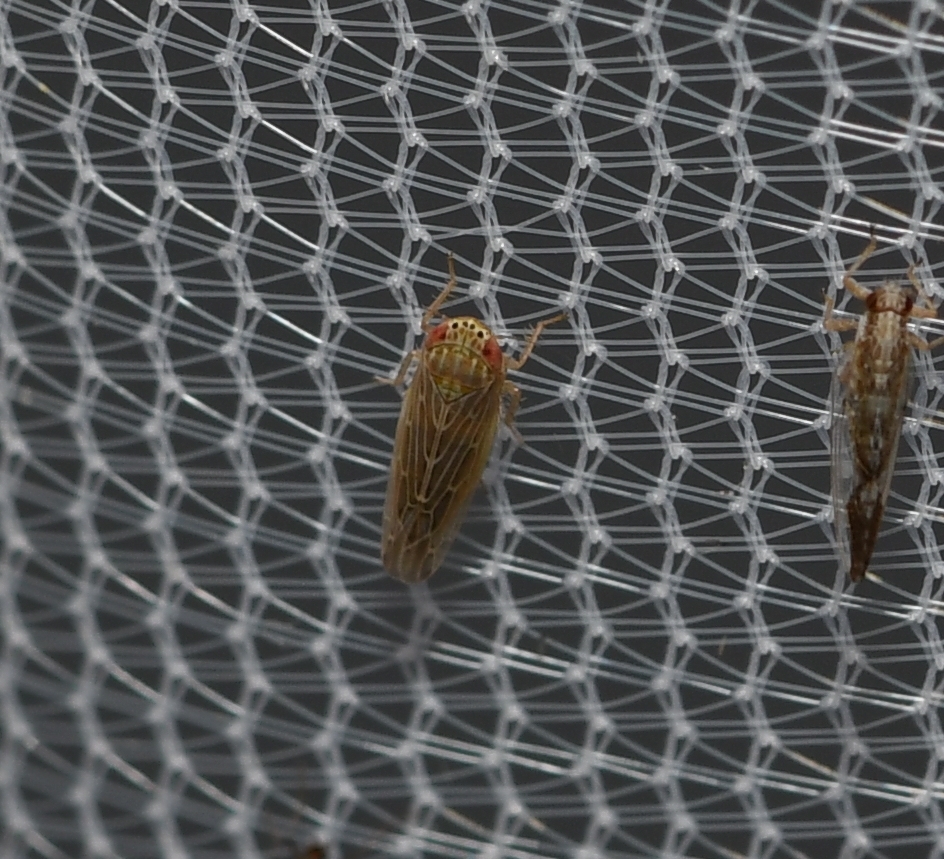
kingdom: Animalia
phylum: Arthropoda
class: Insecta
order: Hemiptera
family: Cicadellidae
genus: Graminella
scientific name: Graminella sonora
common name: Lesser lawn leafhopper
